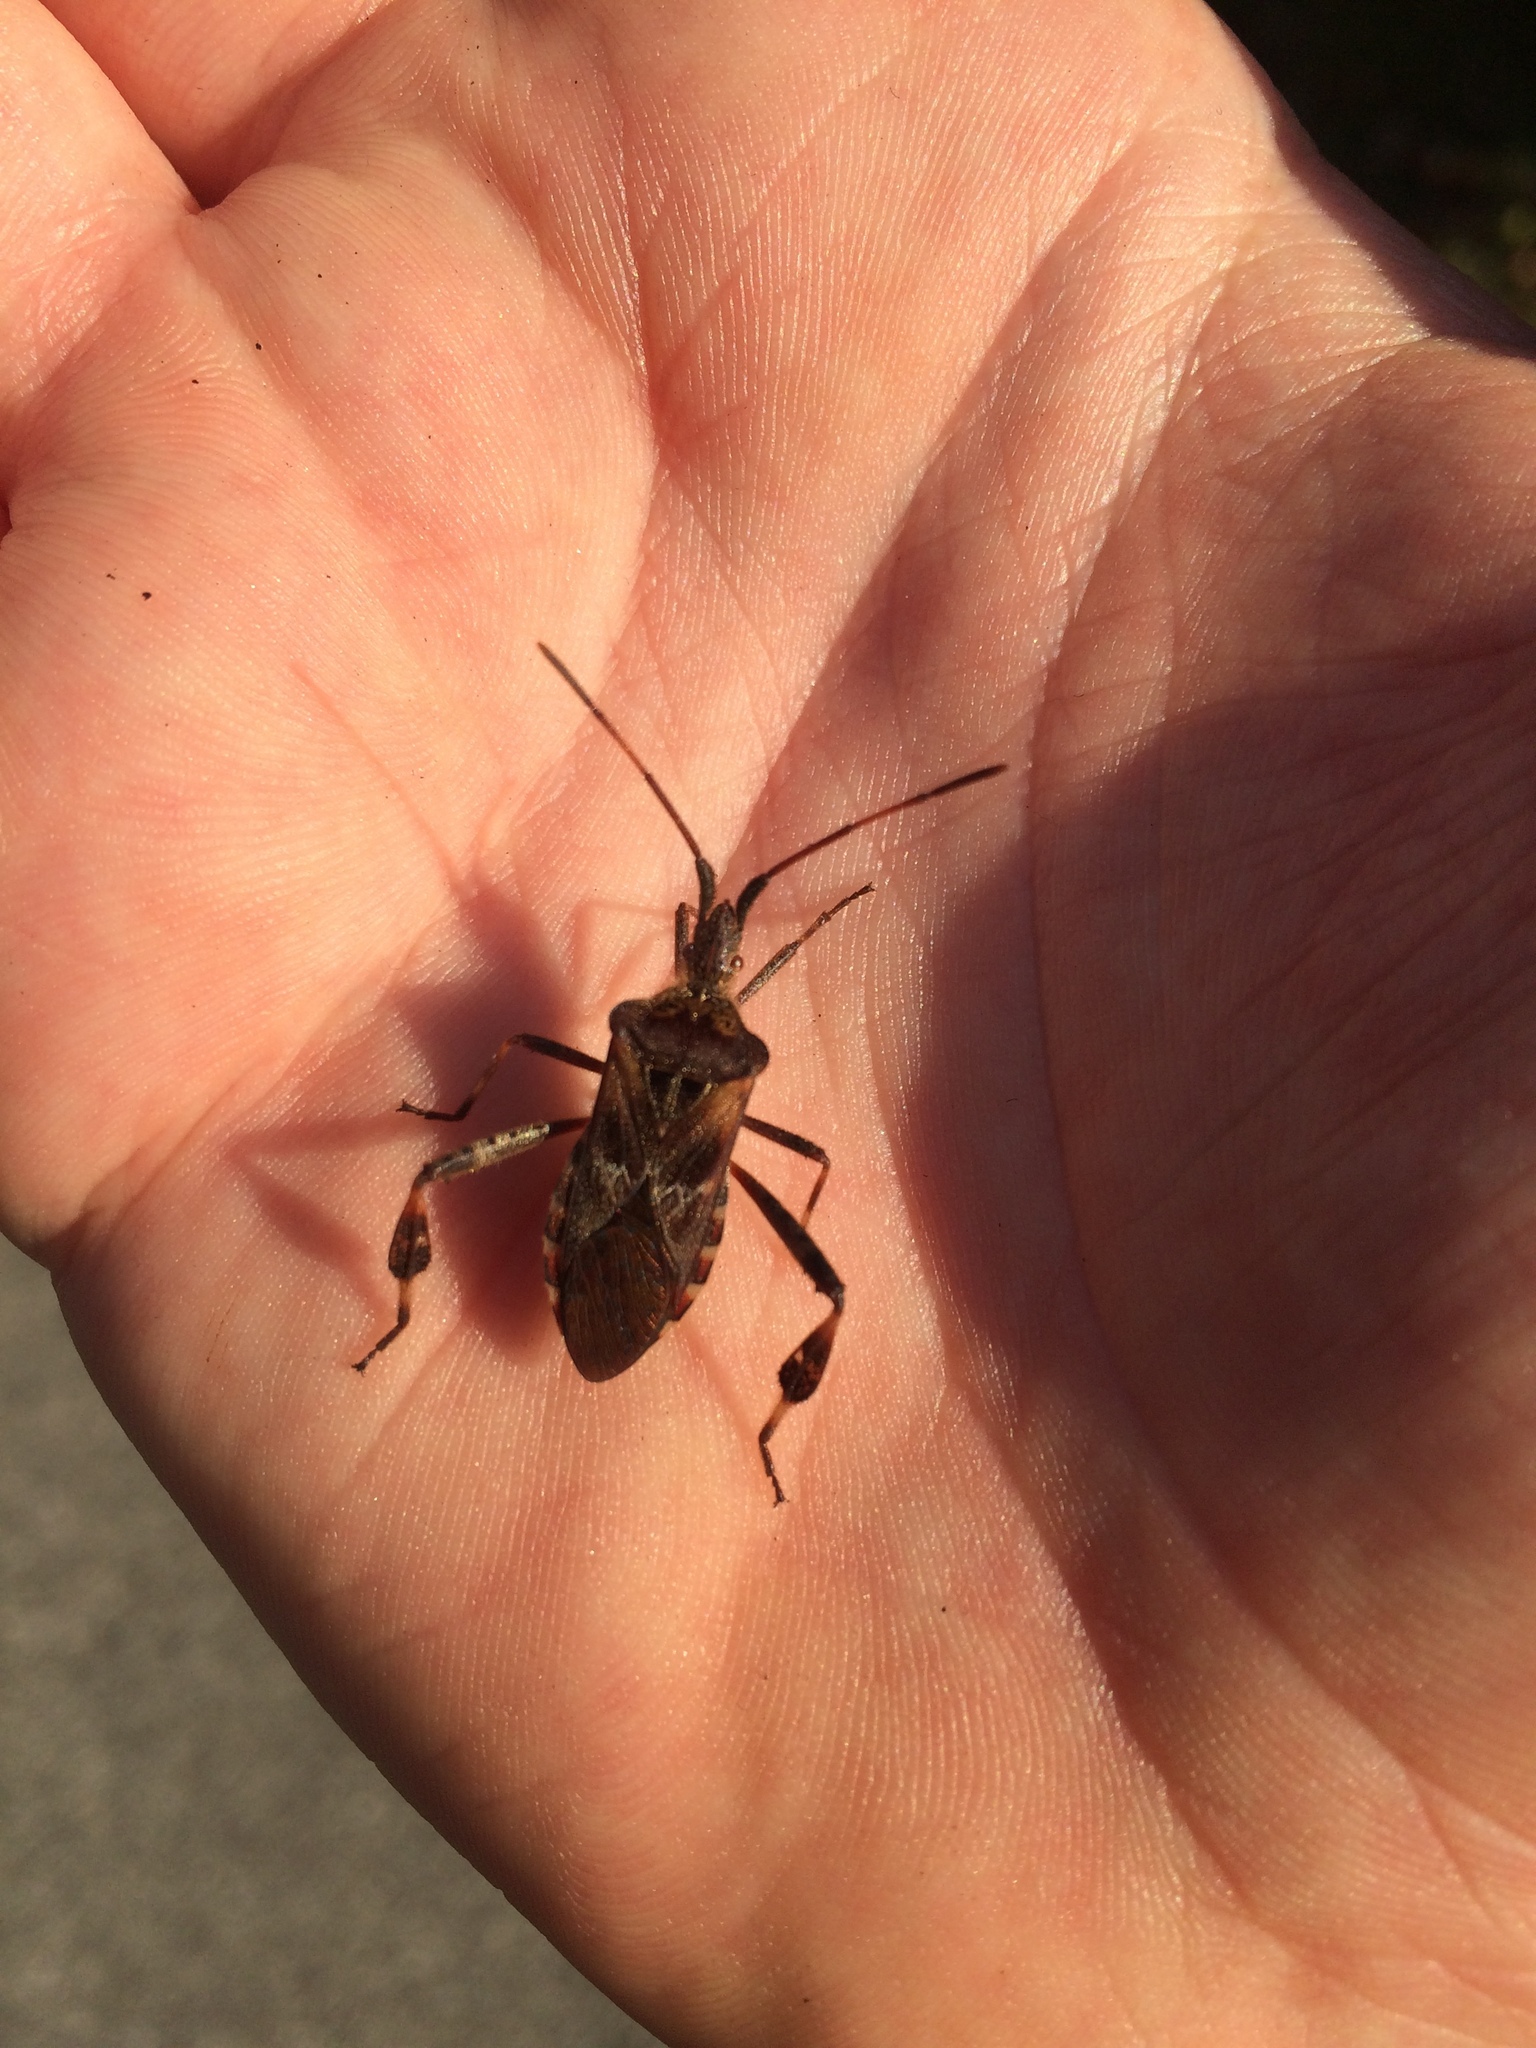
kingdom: Animalia
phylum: Arthropoda
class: Insecta
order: Hemiptera
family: Coreidae
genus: Leptoglossus
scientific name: Leptoglossus occidentalis
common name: Western conifer-seed bug
